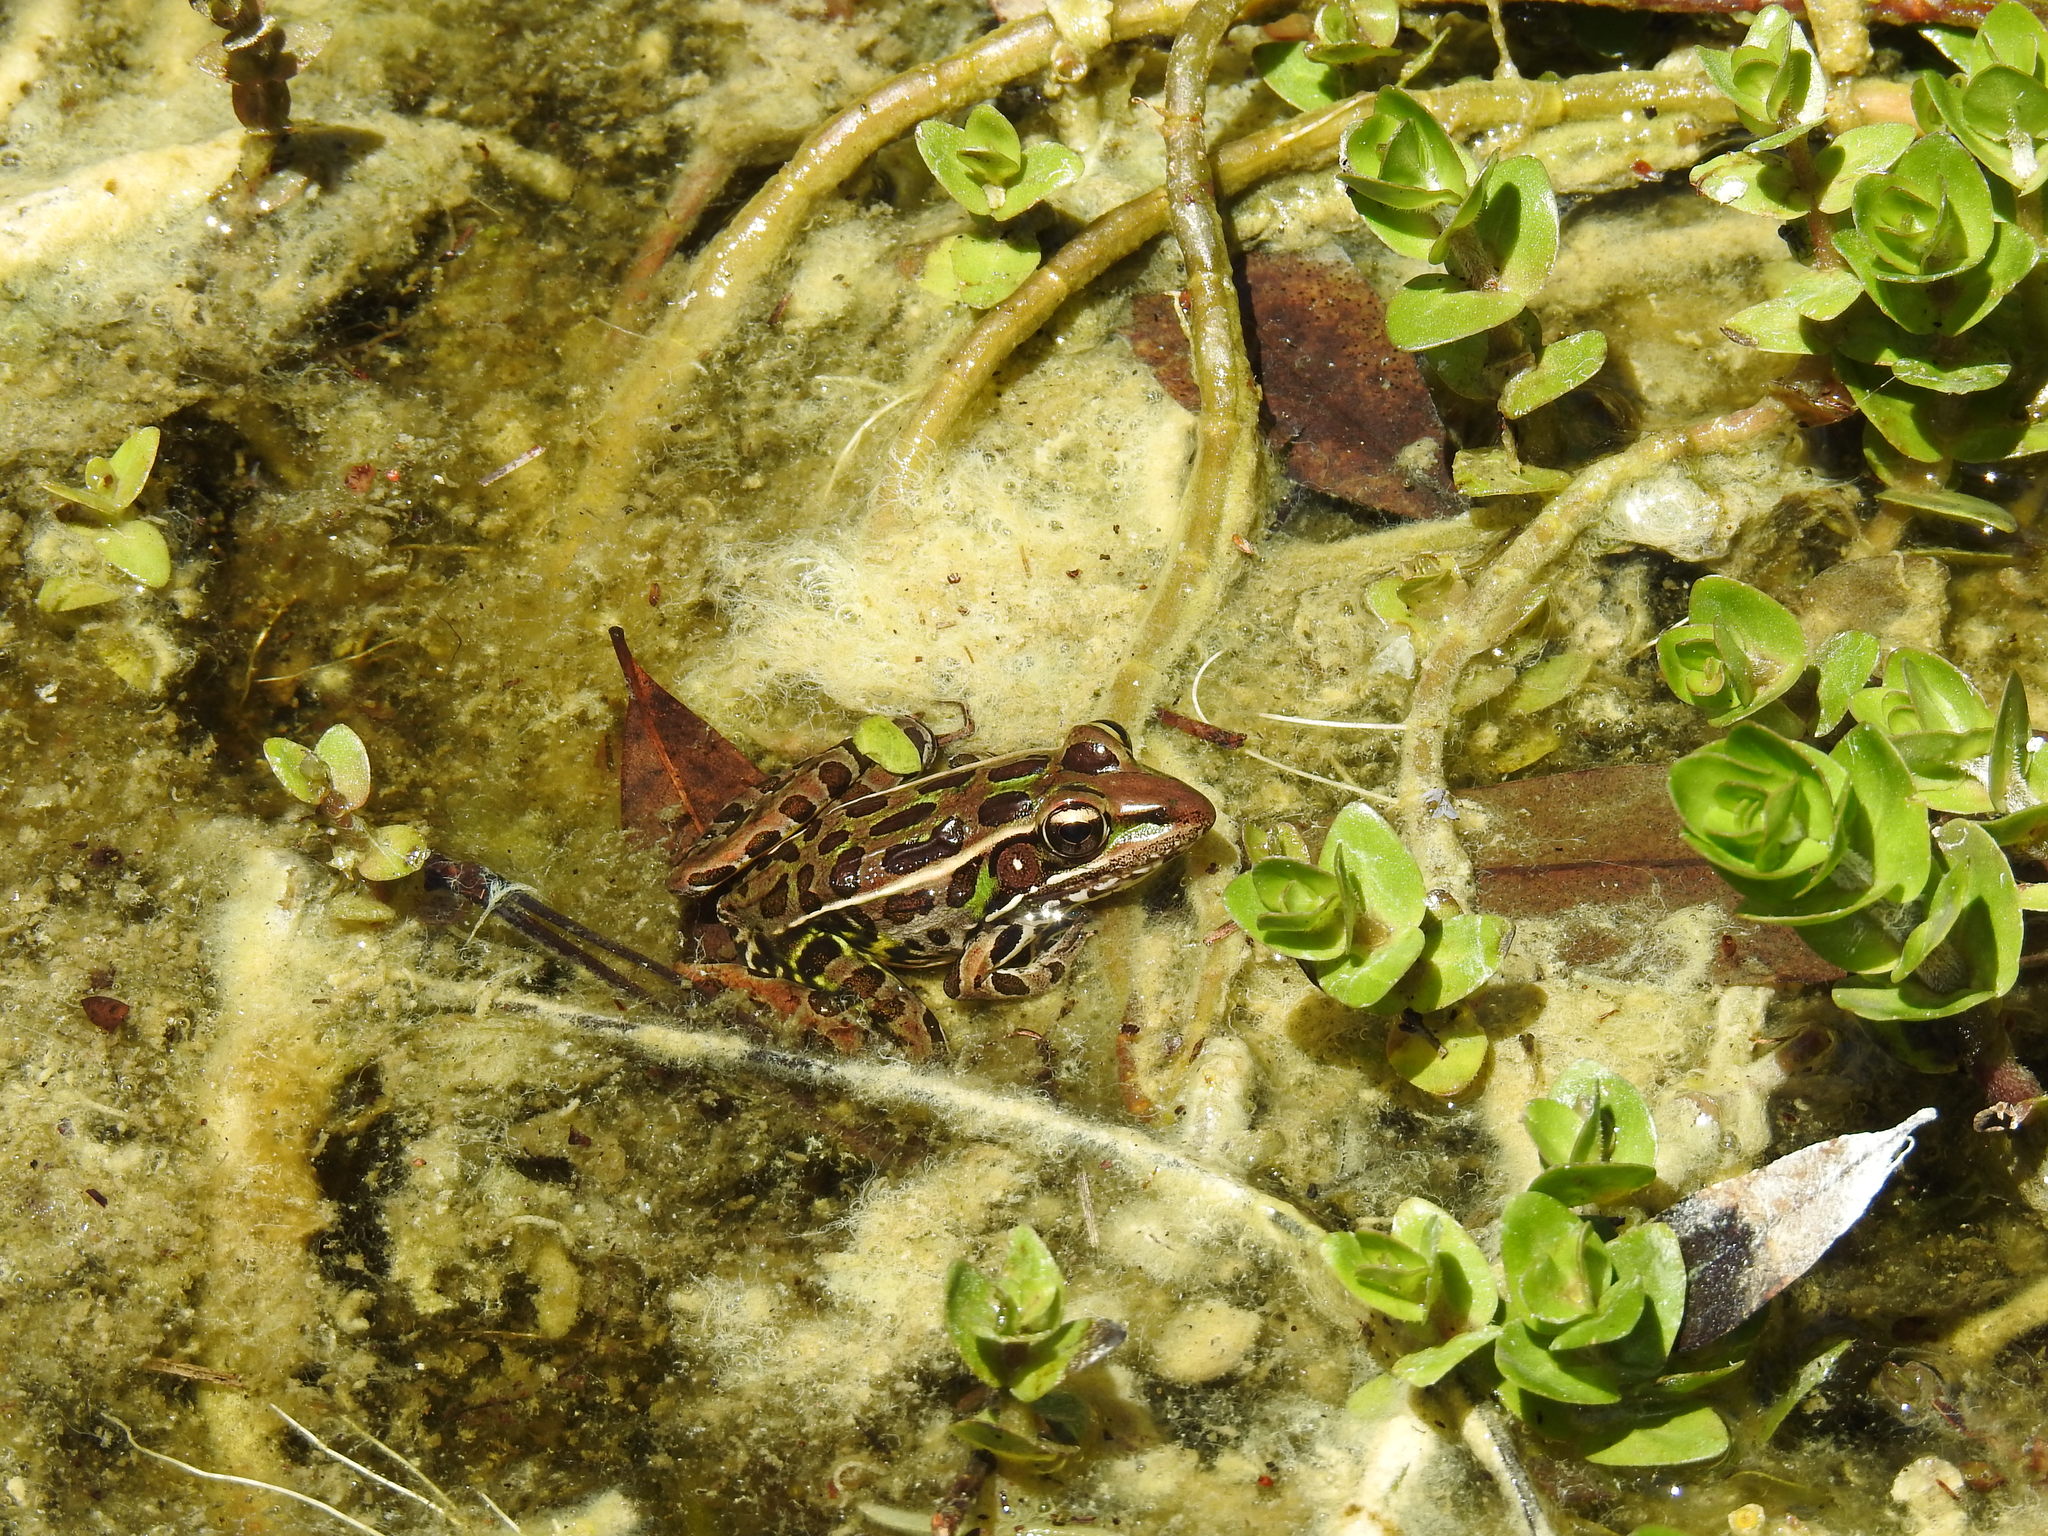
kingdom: Animalia
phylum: Chordata
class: Amphibia
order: Anura
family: Ranidae
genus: Lithobates
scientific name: Lithobates sphenocephalus
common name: Southern leopard frog
